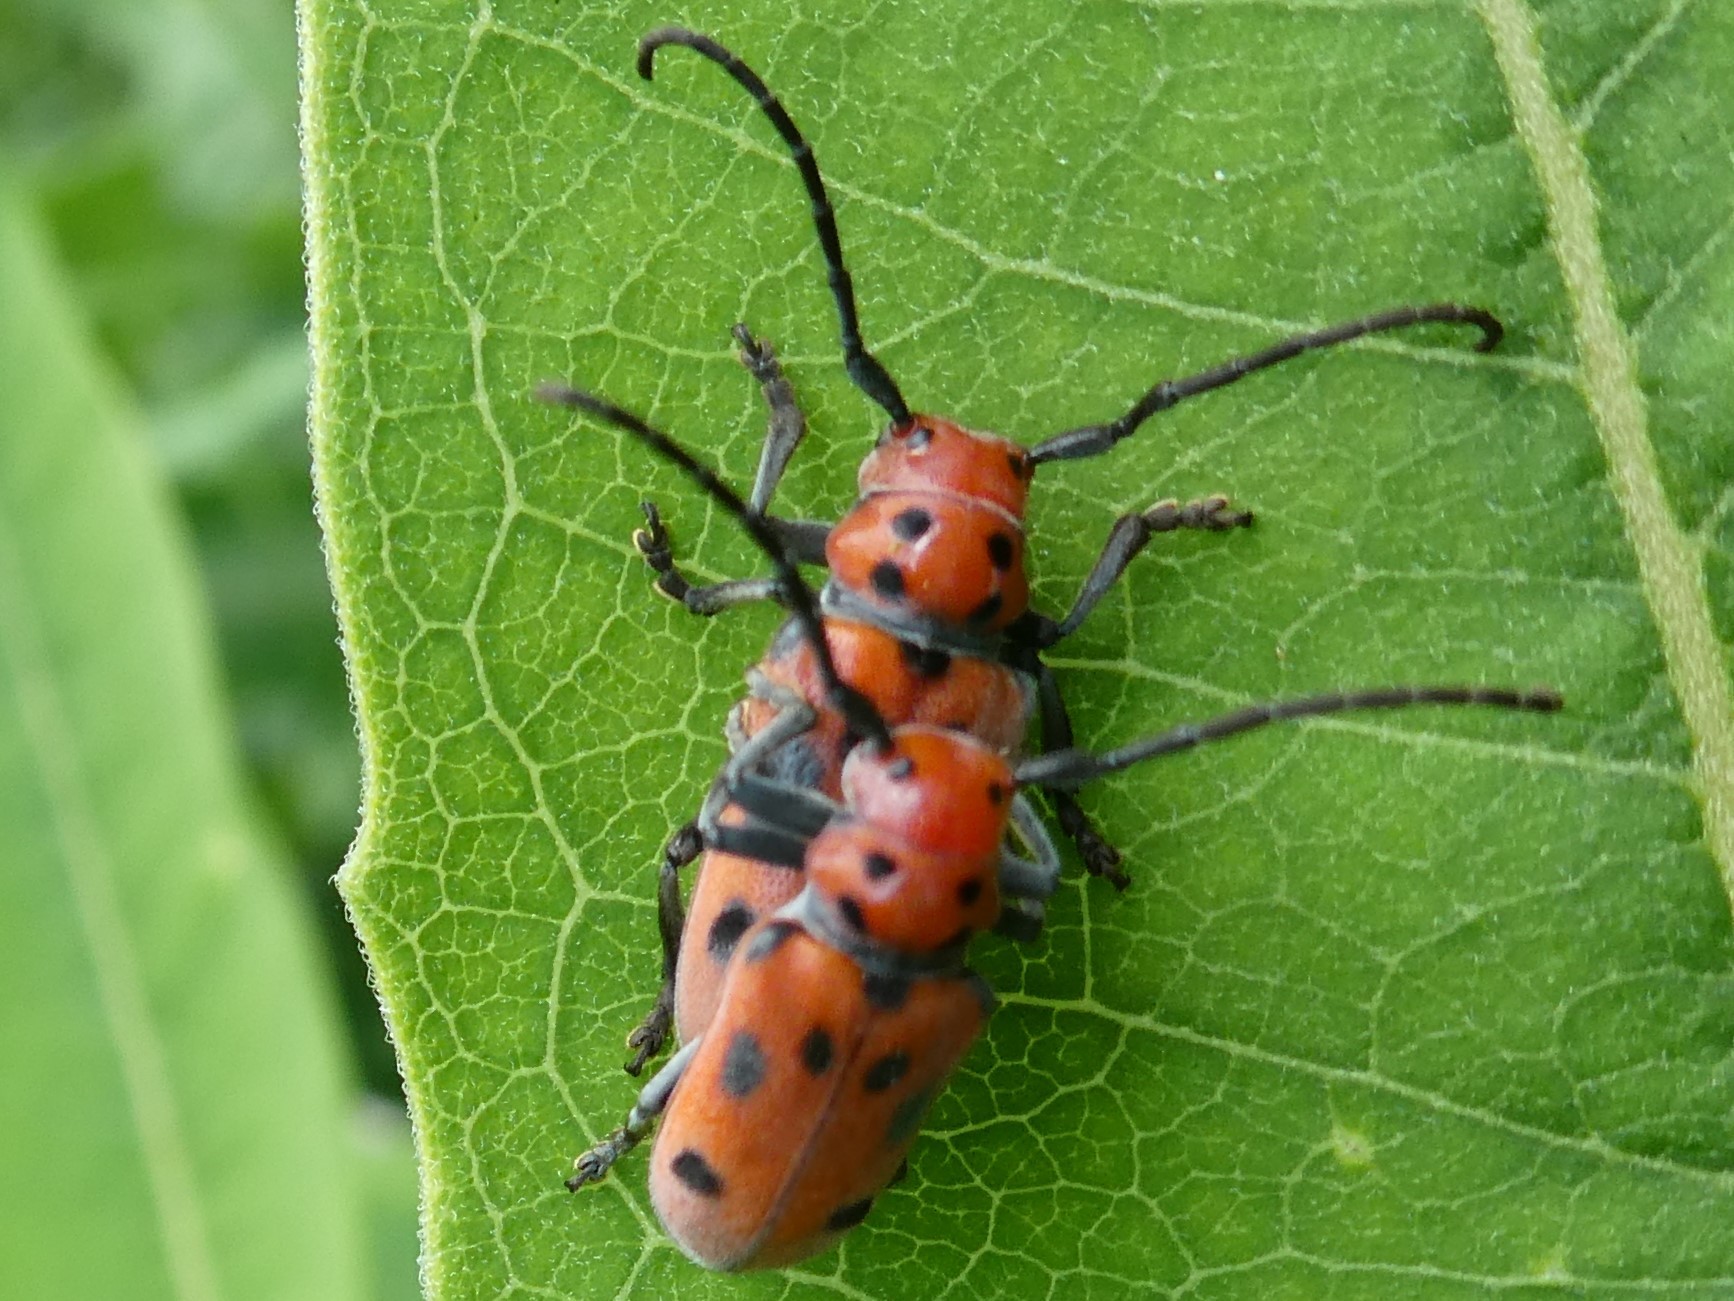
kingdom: Animalia
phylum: Arthropoda
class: Insecta
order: Coleoptera
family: Cerambycidae
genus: Tetraopes
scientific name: Tetraopes tetrophthalmus
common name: Red milkweed beetle
